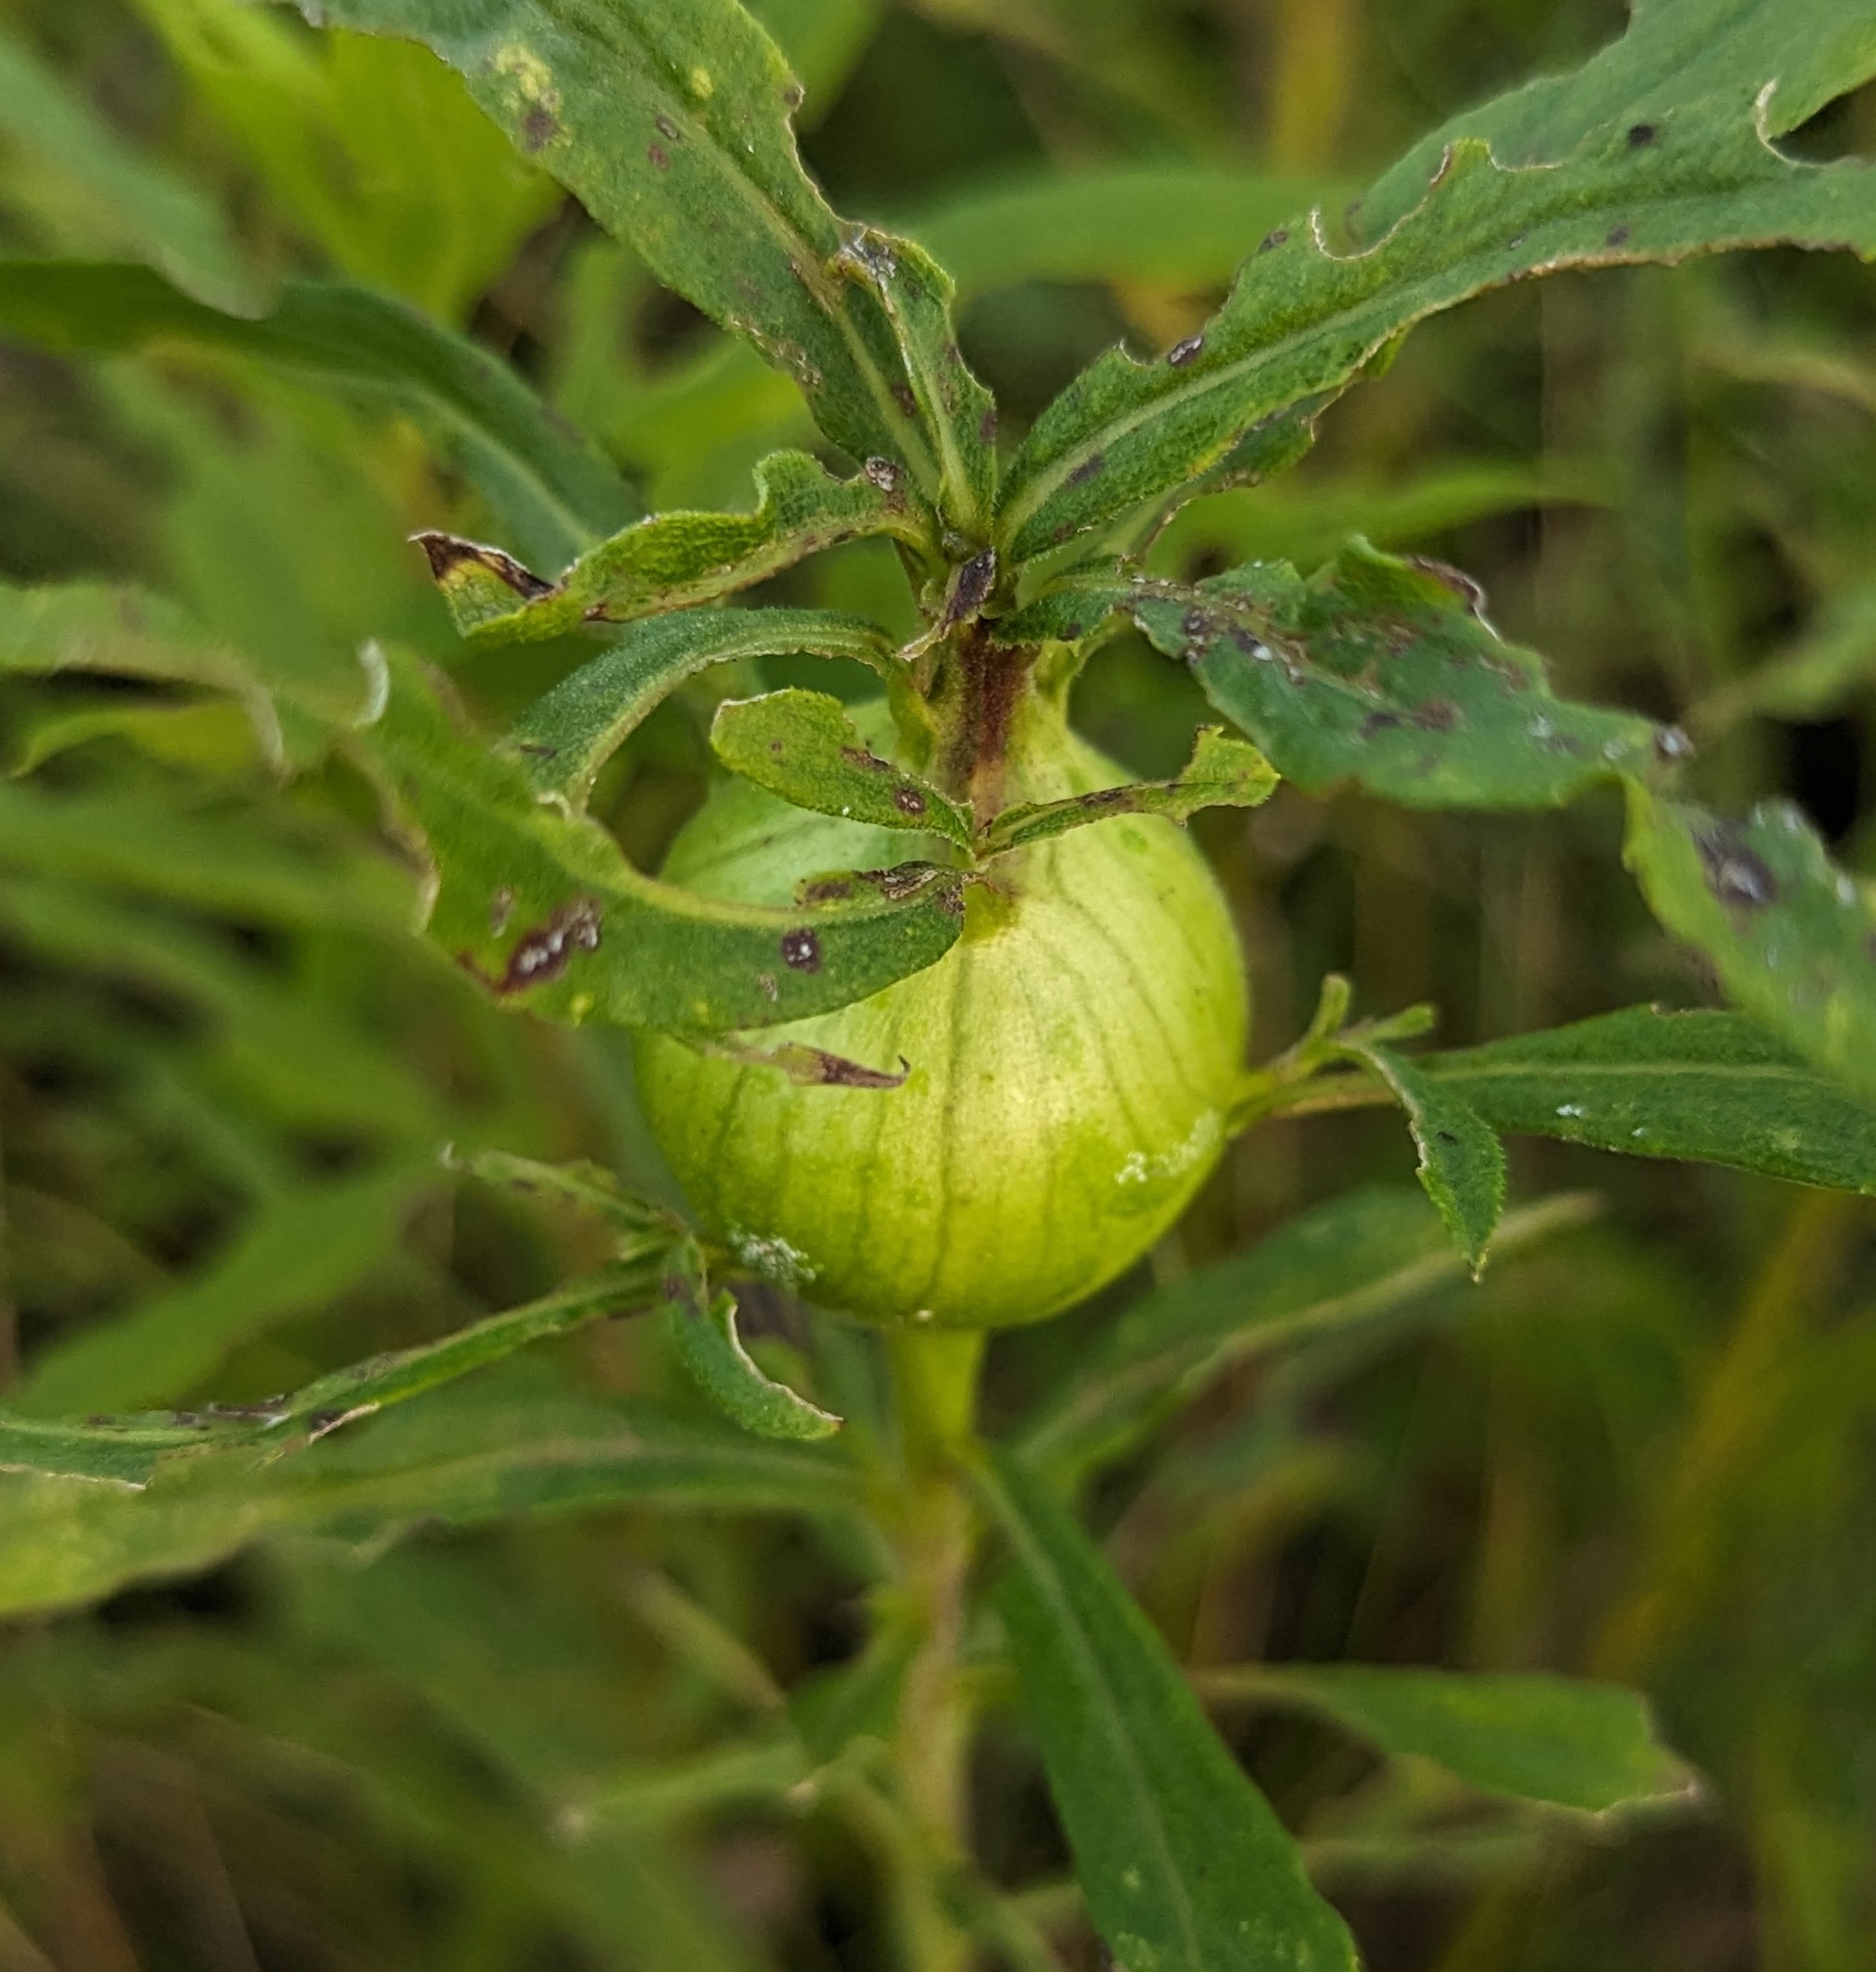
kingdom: Animalia
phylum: Arthropoda
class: Insecta
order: Diptera
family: Tephritidae
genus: Eurosta
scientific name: Eurosta solidaginis
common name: Goldenrod gall fly
